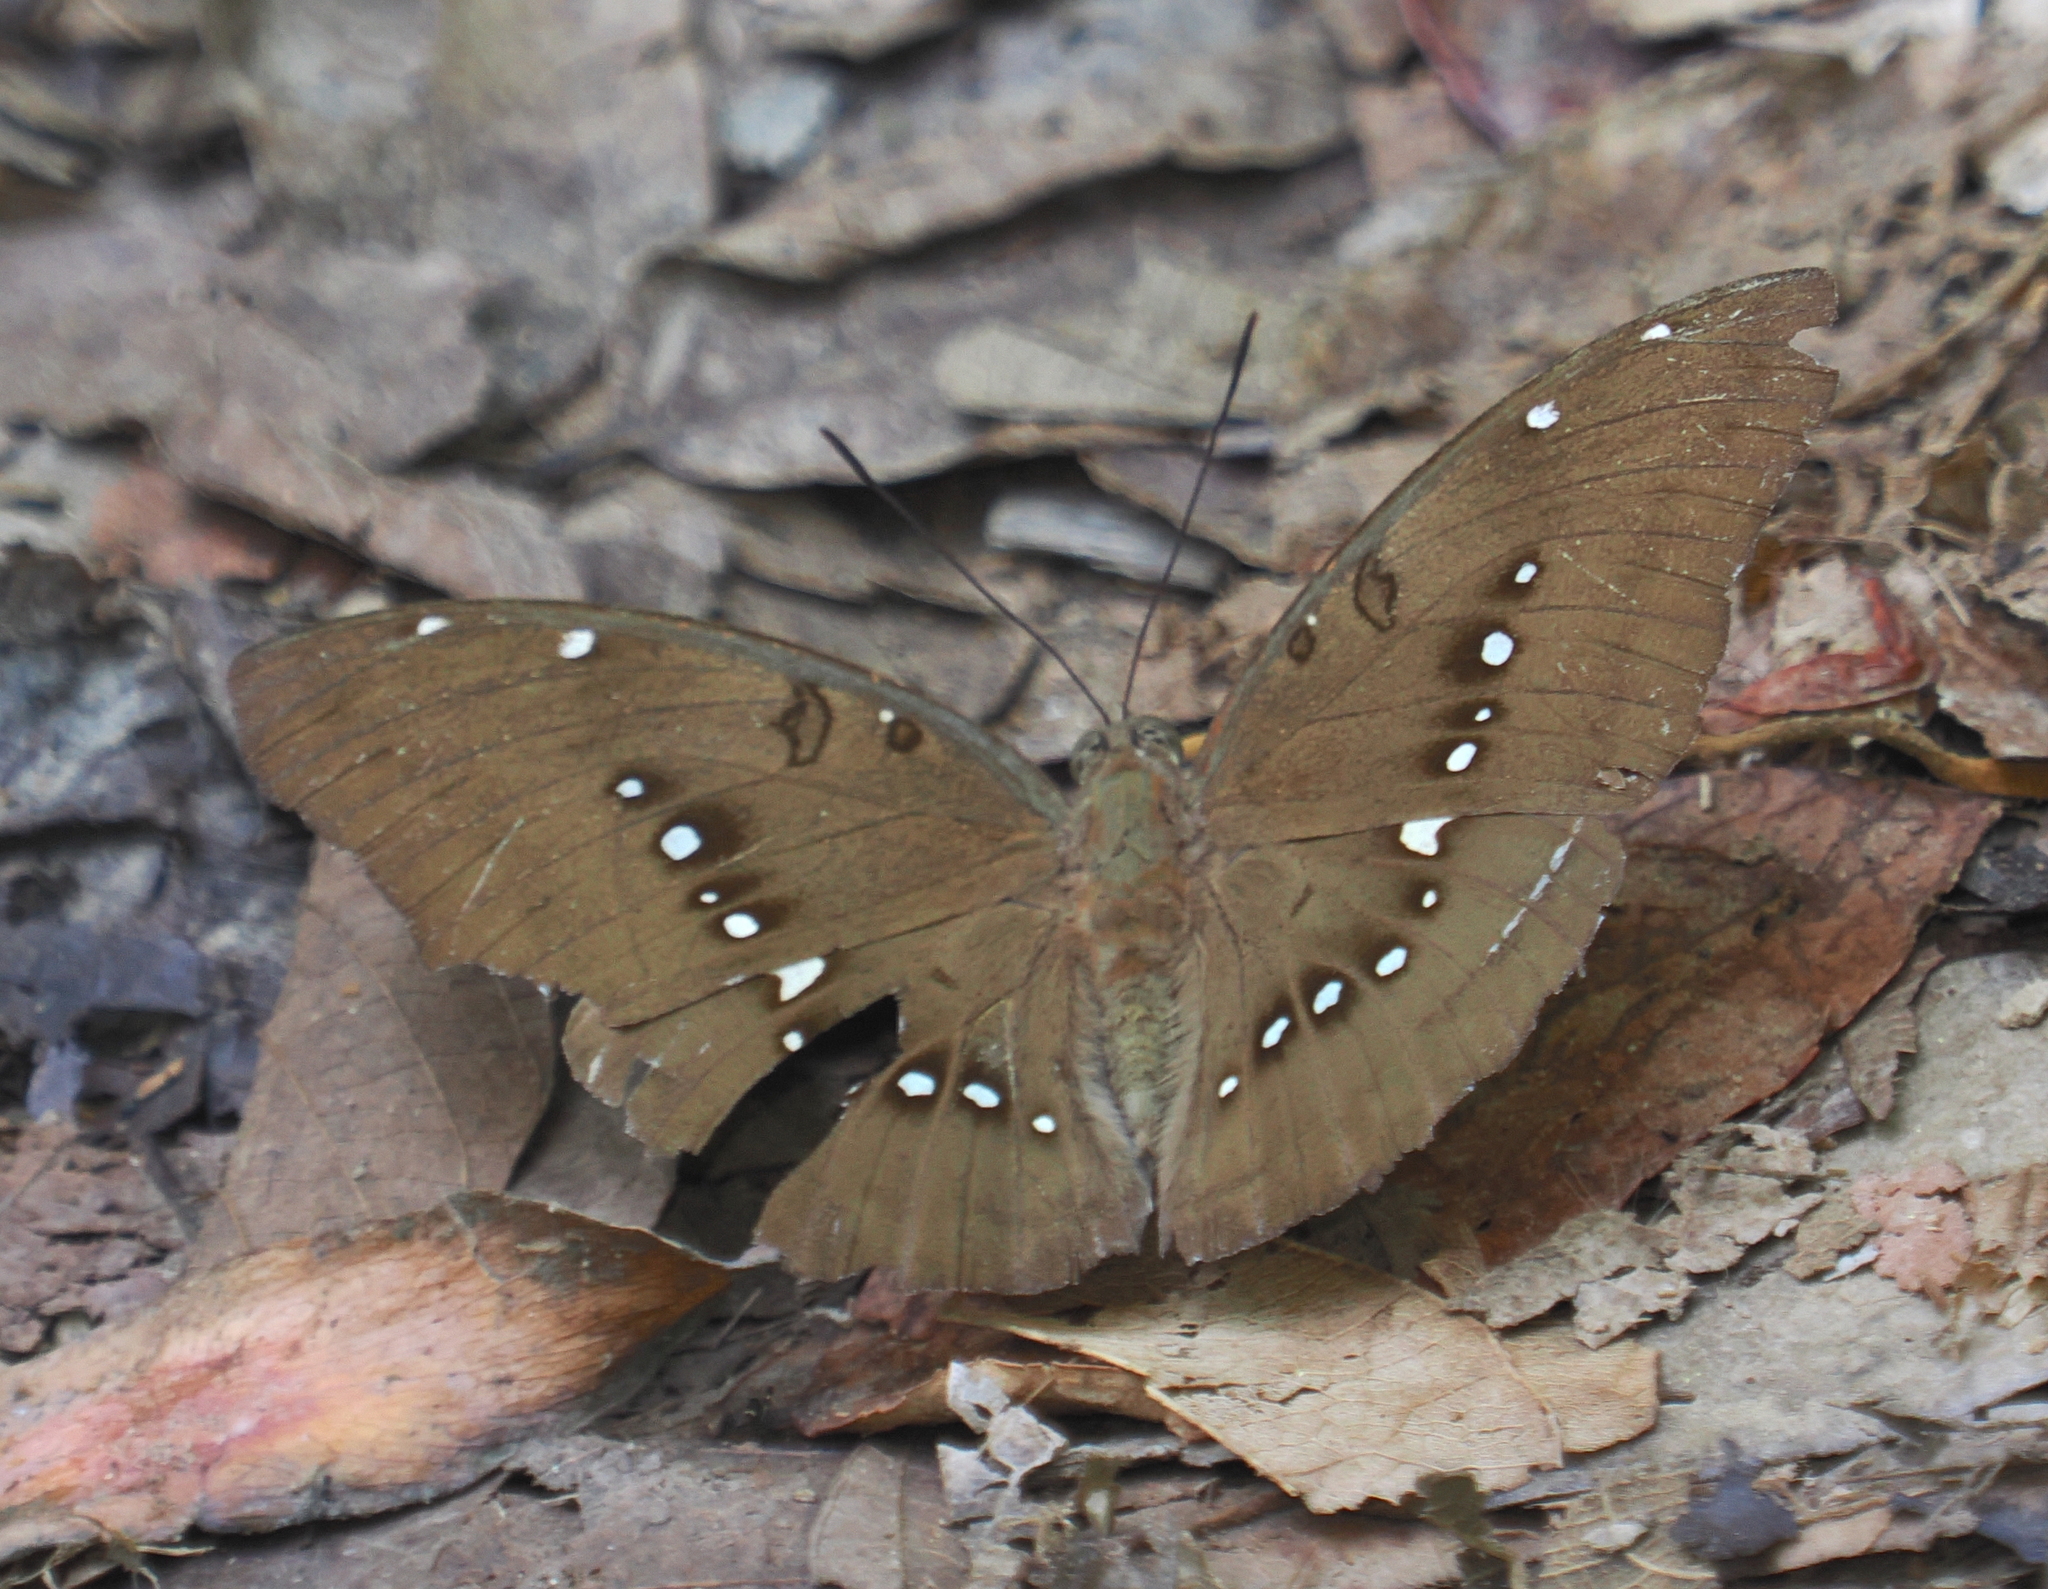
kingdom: Animalia
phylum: Arthropoda
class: Insecta
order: Lepidoptera
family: Nymphalidae
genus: Euthalia
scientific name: Euthalia Bassarona dunya
